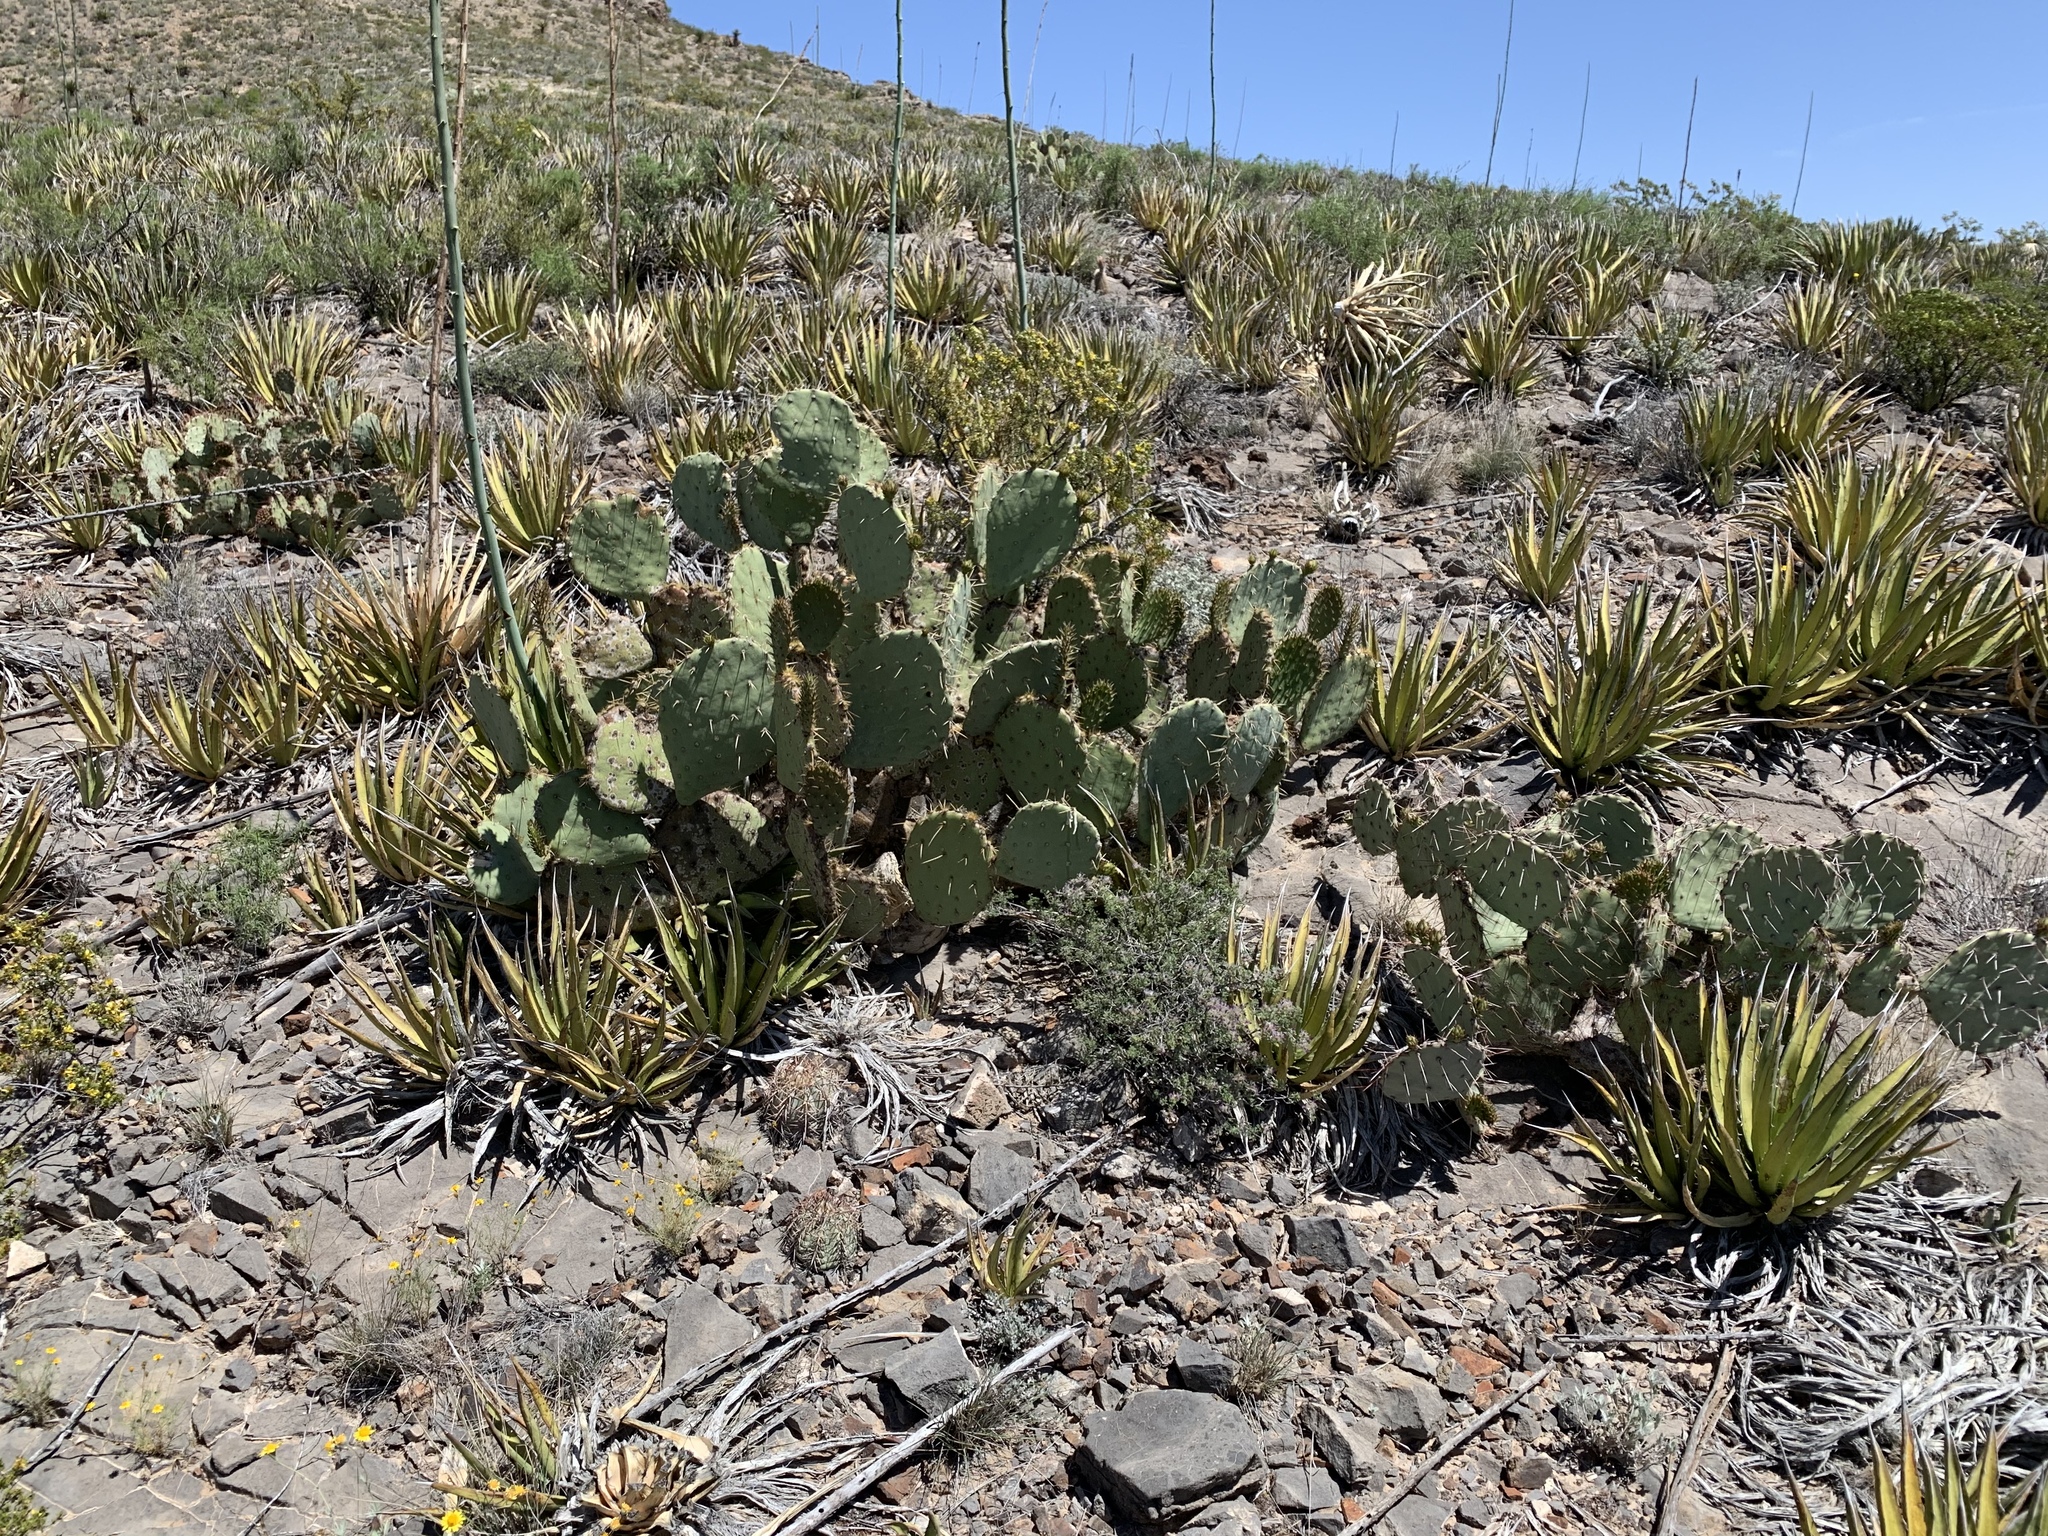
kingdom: Plantae
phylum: Tracheophyta
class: Magnoliopsida
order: Caryophyllales
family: Cactaceae
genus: Opuntia
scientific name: Opuntia engelmannii
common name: Cactus-apple
